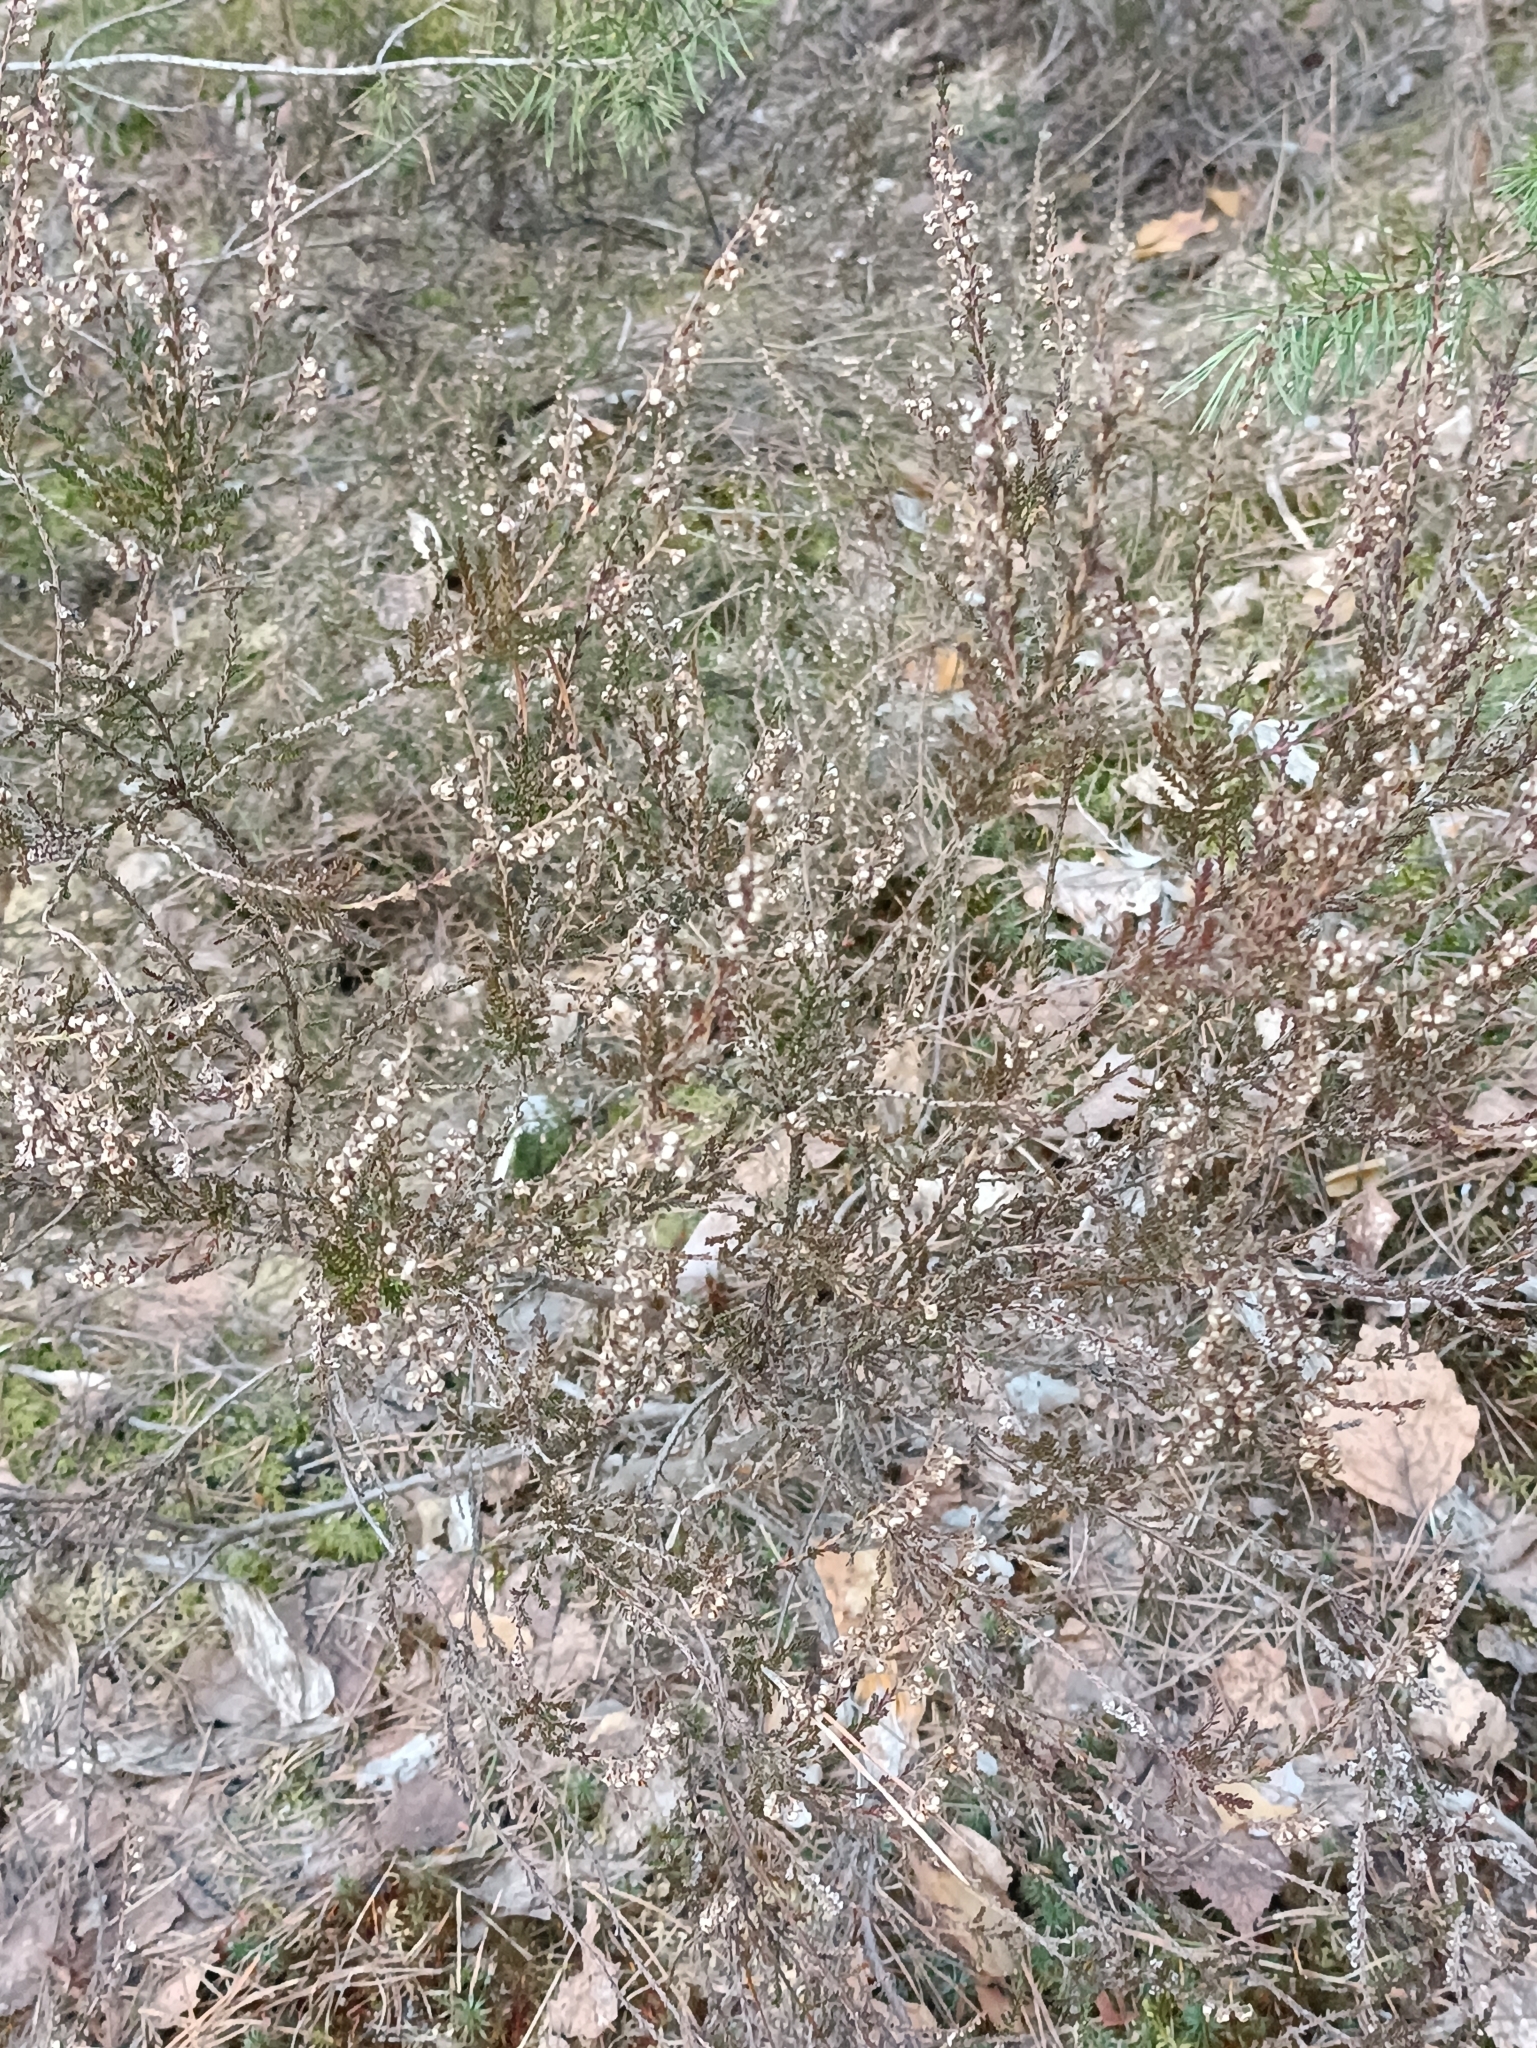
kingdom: Plantae
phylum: Tracheophyta
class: Magnoliopsida
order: Ericales
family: Ericaceae
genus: Calluna
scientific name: Calluna vulgaris
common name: Heather
